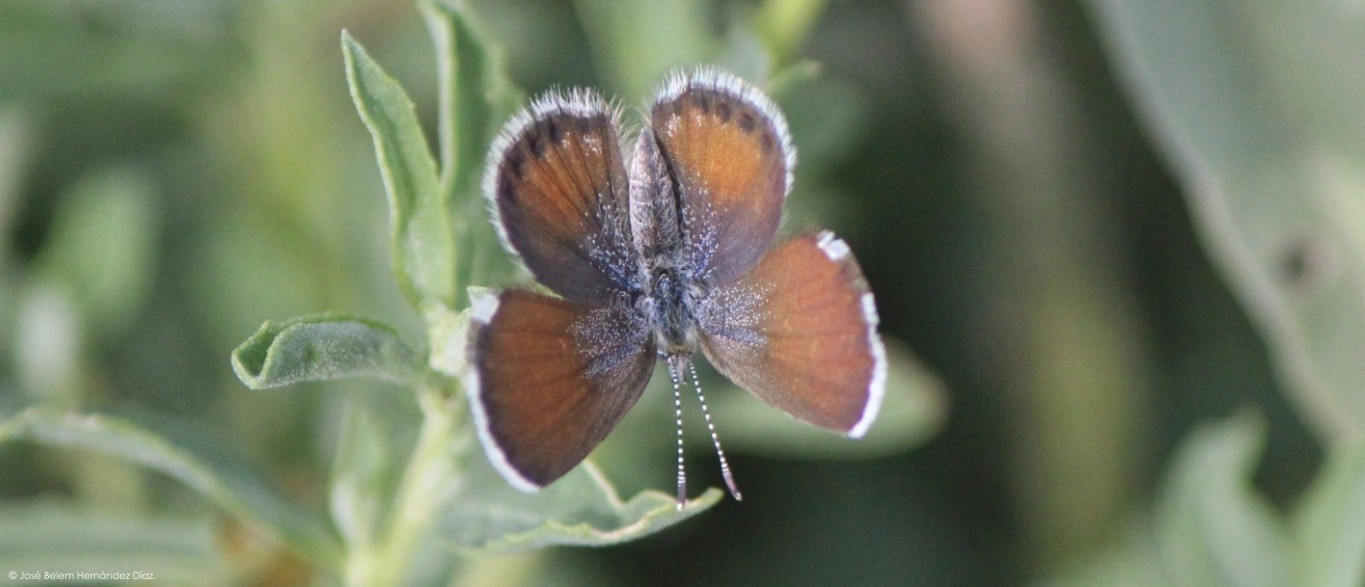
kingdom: Animalia
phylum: Arthropoda
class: Insecta
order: Lepidoptera
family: Lycaenidae
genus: Brephidium
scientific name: Brephidium exilis
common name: Pygmy blue
